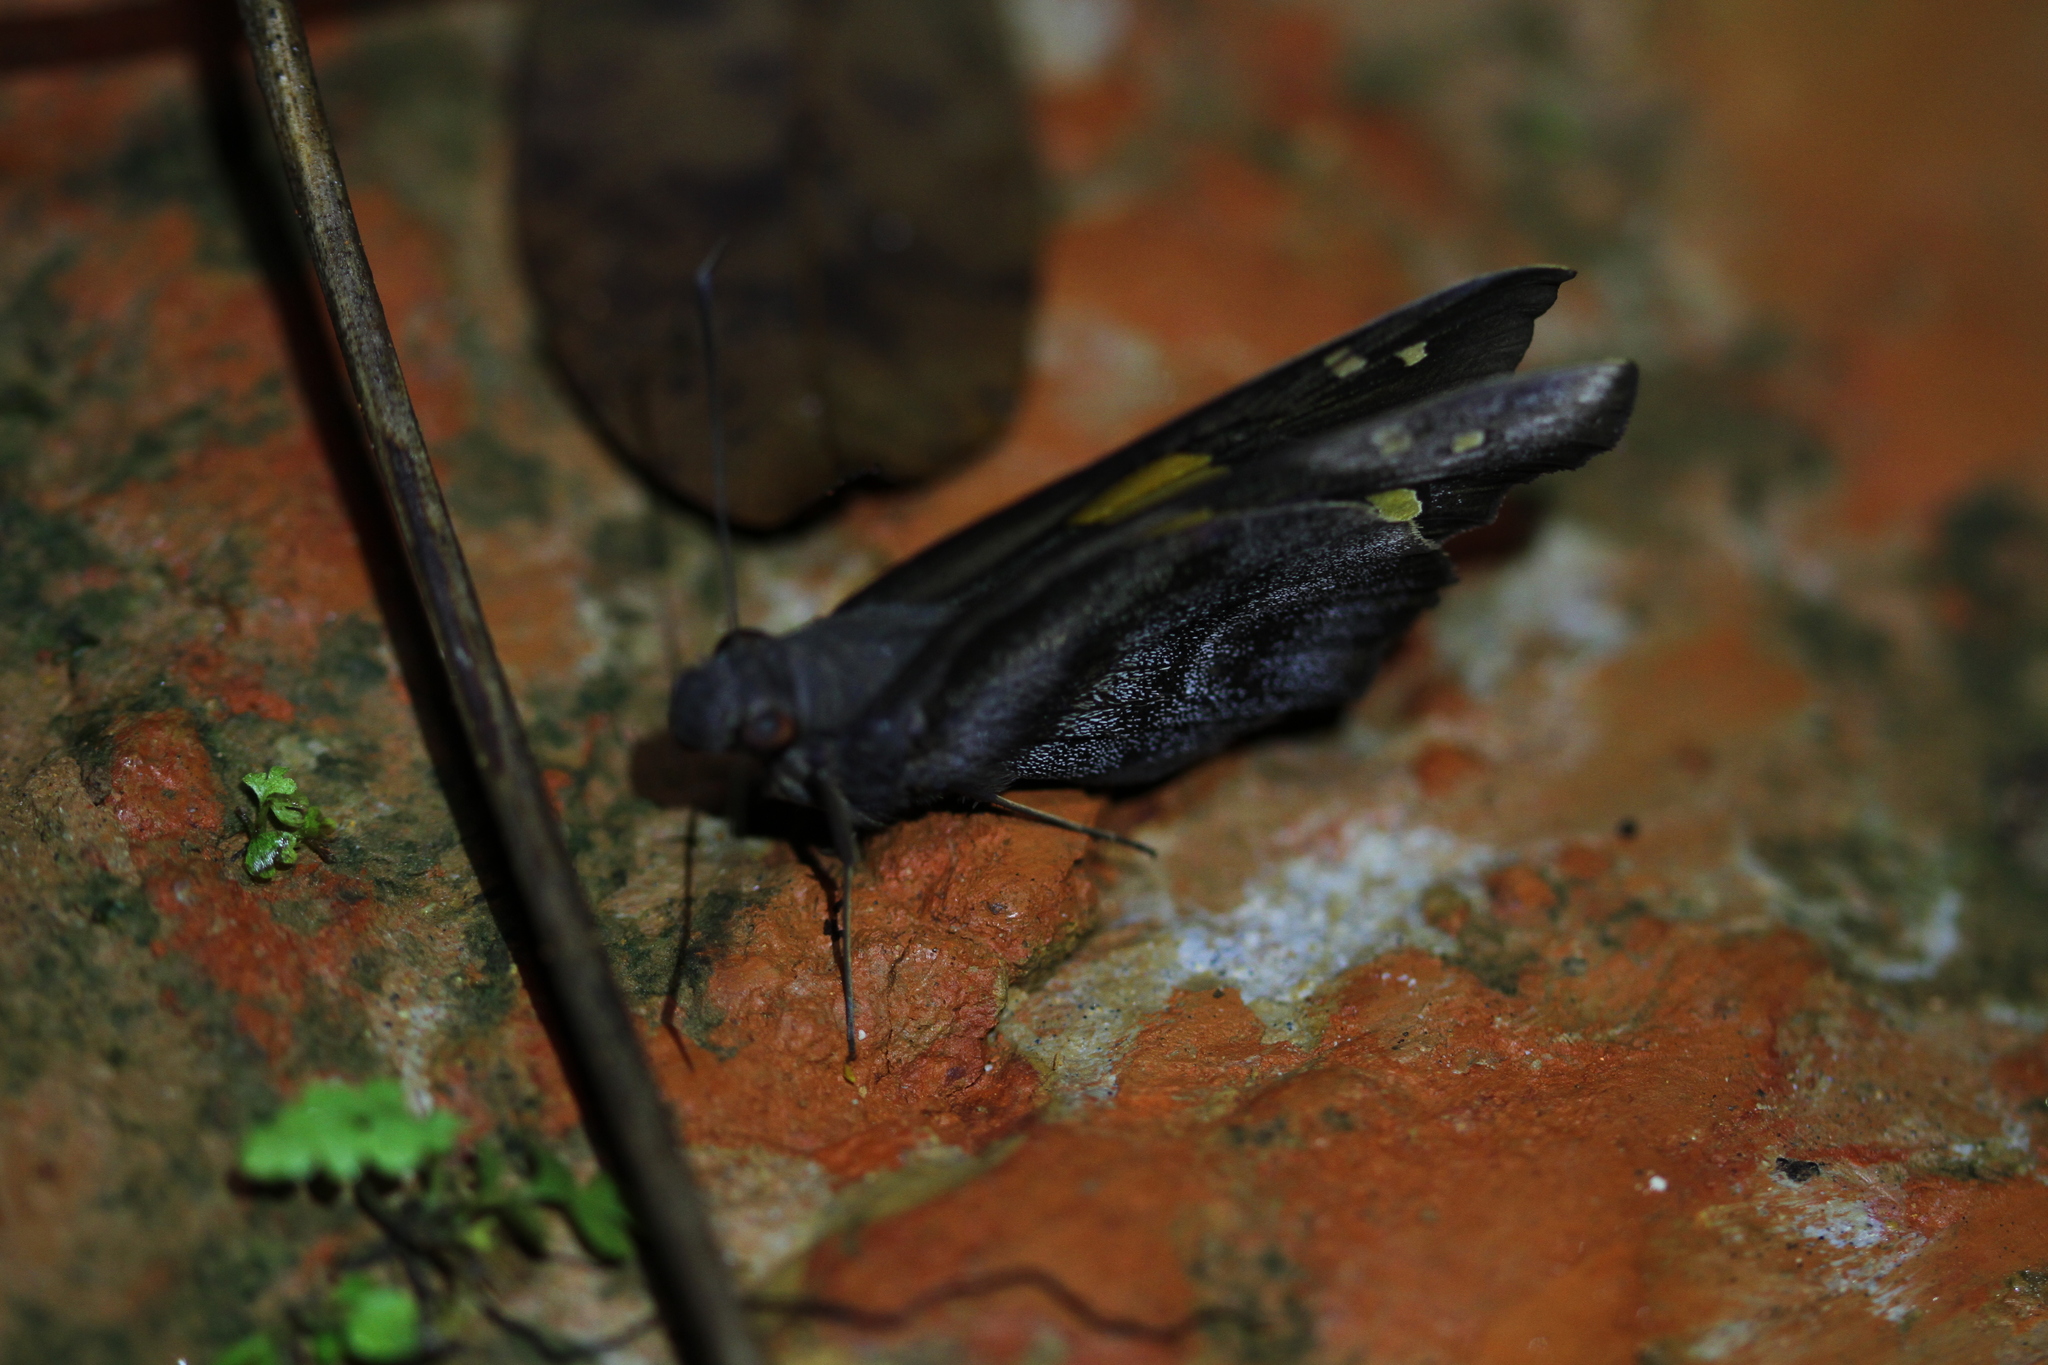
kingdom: Animalia
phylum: Arthropoda
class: Insecta
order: Lepidoptera
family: Hesperiidae
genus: Gangara
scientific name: Gangara thyrsis
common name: Giant redeye
